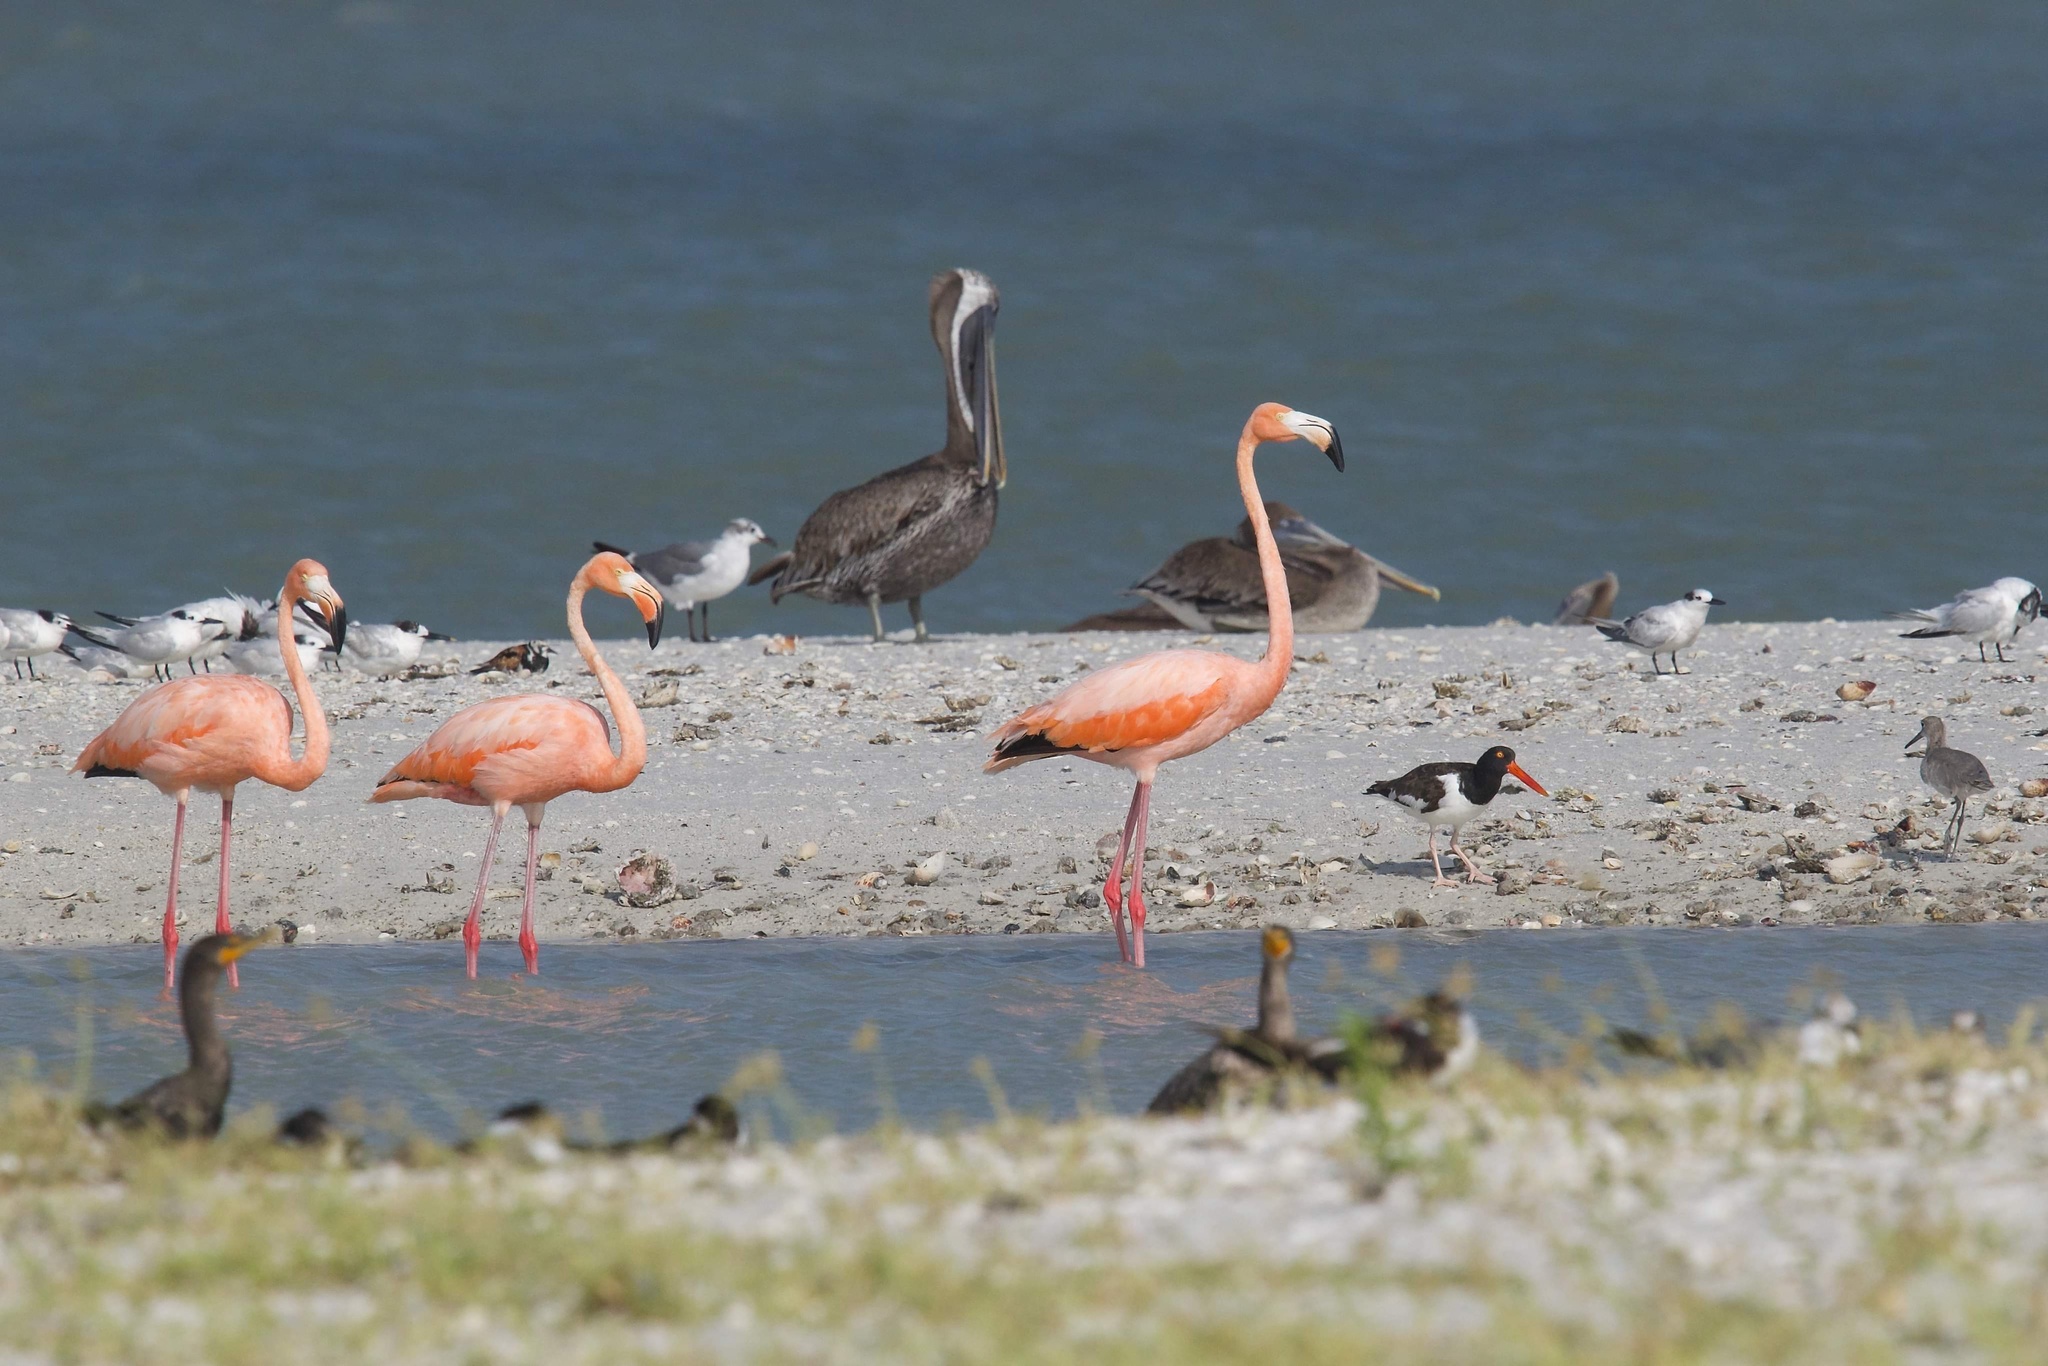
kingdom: Animalia
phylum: Chordata
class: Aves
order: Phoenicopteriformes
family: Phoenicopteridae
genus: Phoenicopterus
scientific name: Phoenicopterus ruber
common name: American flamingo
